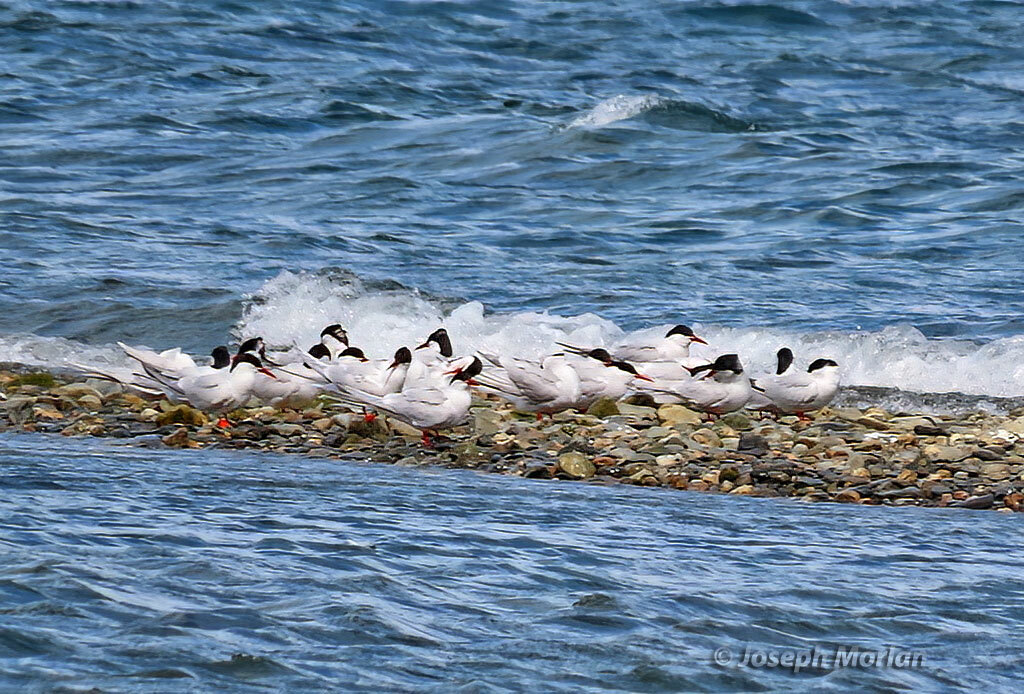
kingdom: Animalia
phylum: Chordata
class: Aves
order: Charadriiformes
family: Laridae
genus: Sterna
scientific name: Sterna hirundinacea
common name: South american tern
